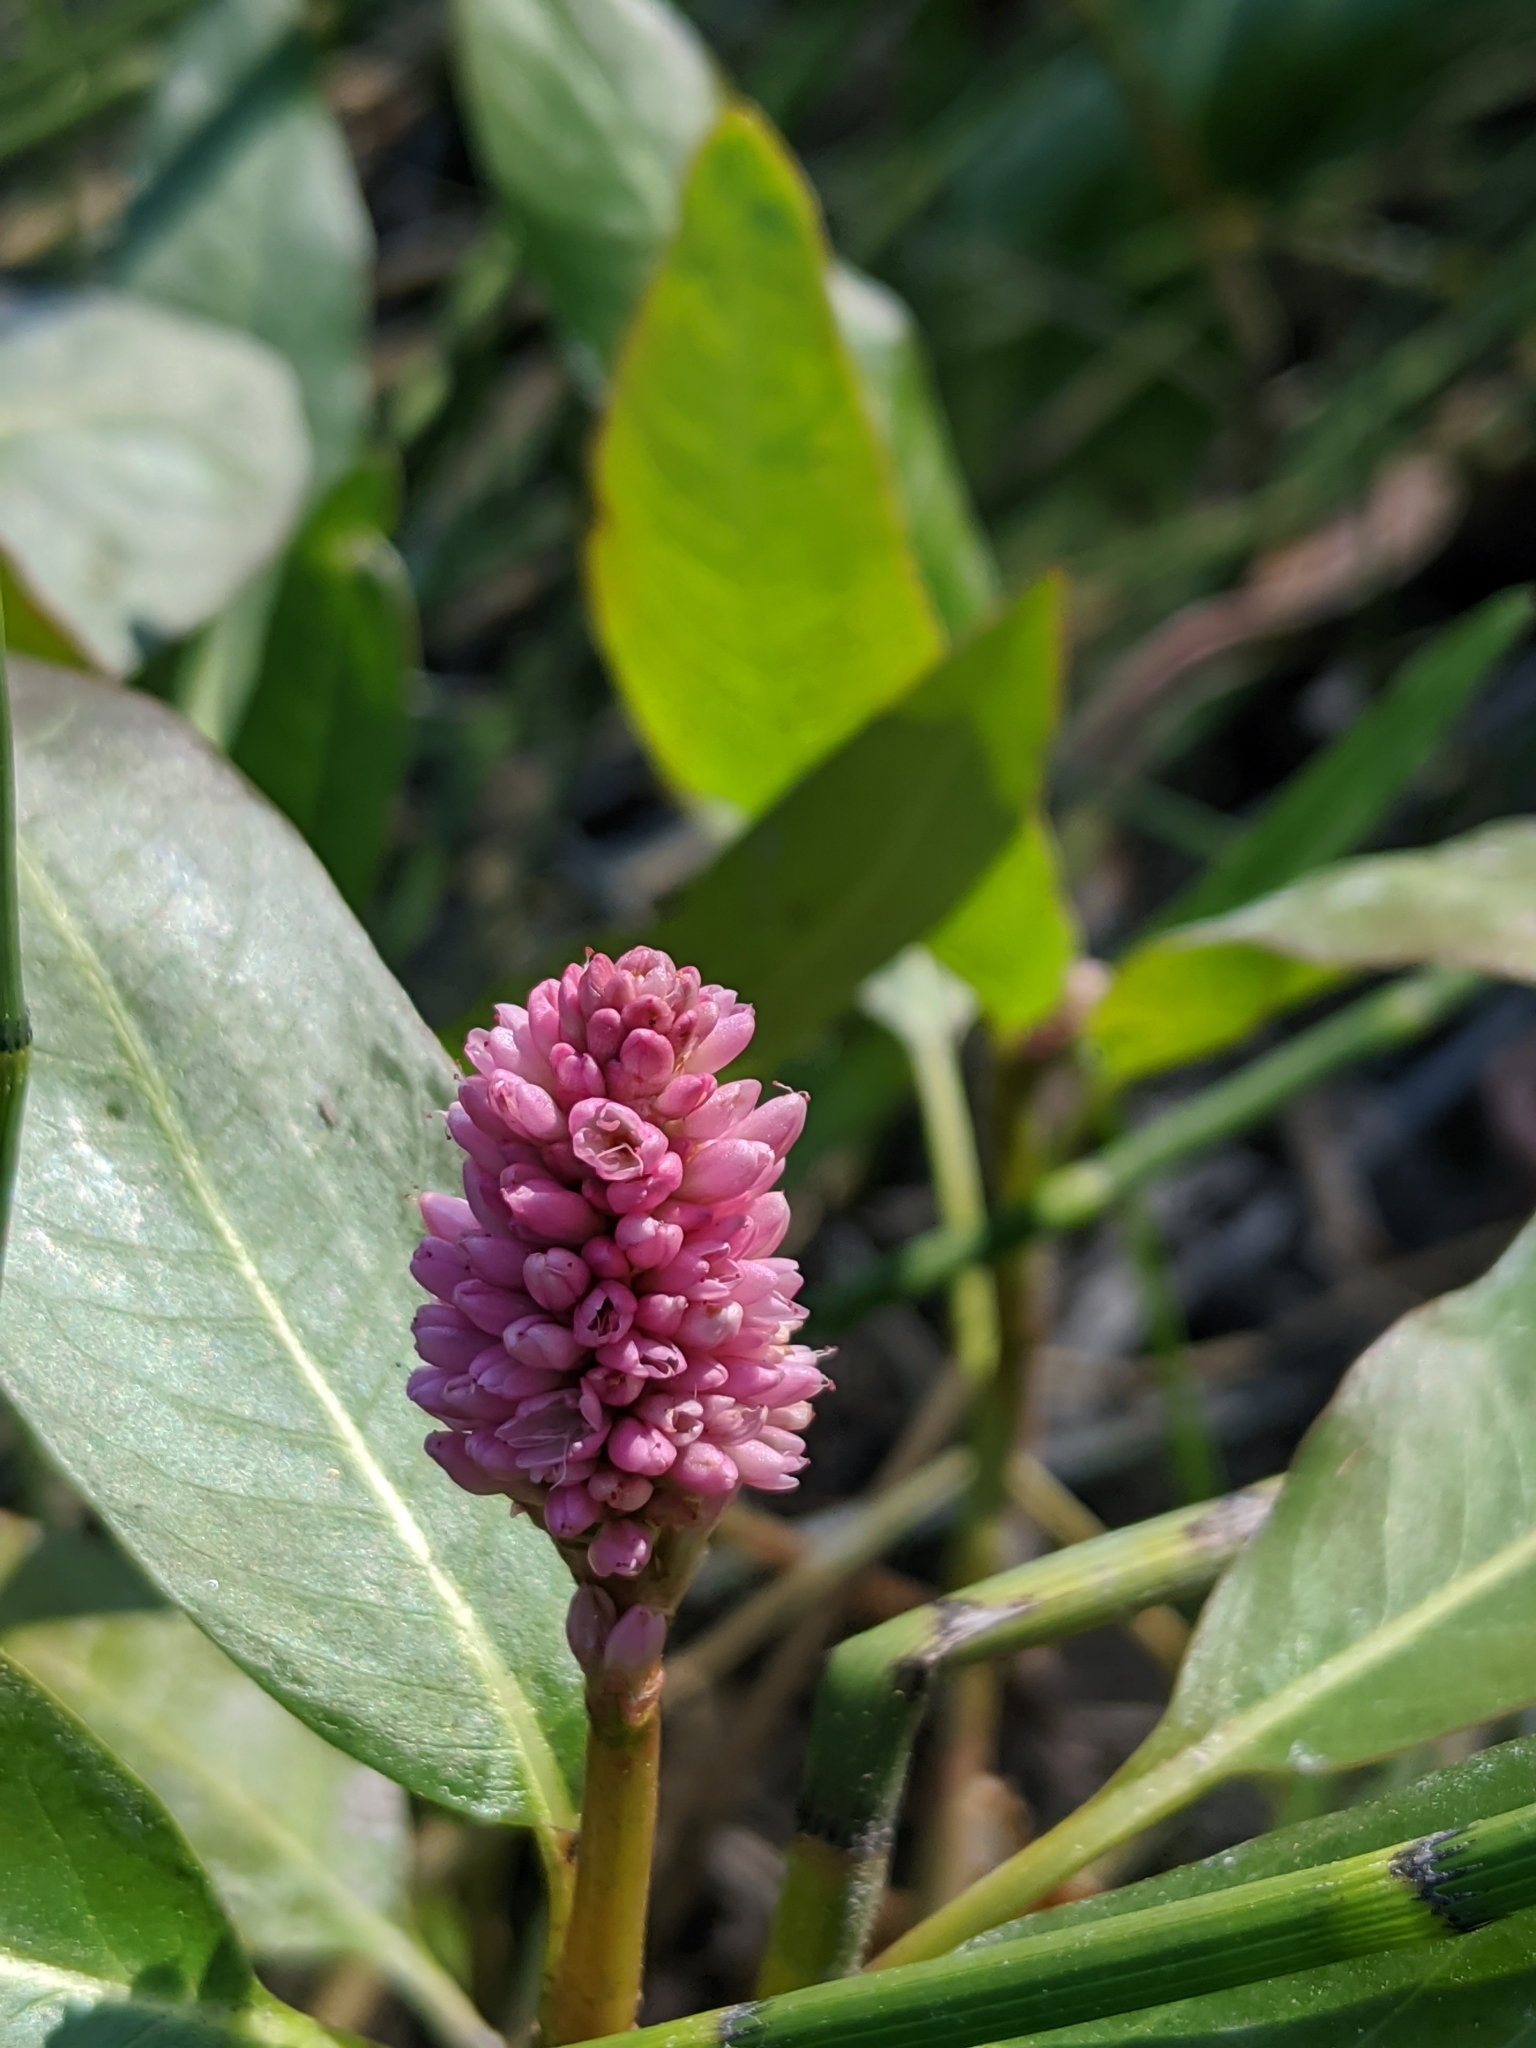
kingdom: Plantae
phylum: Tracheophyta
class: Magnoliopsida
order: Caryophyllales
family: Polygonaceae
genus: Persicaria
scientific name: Persicaria amphibia
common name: Amphibious bistort
